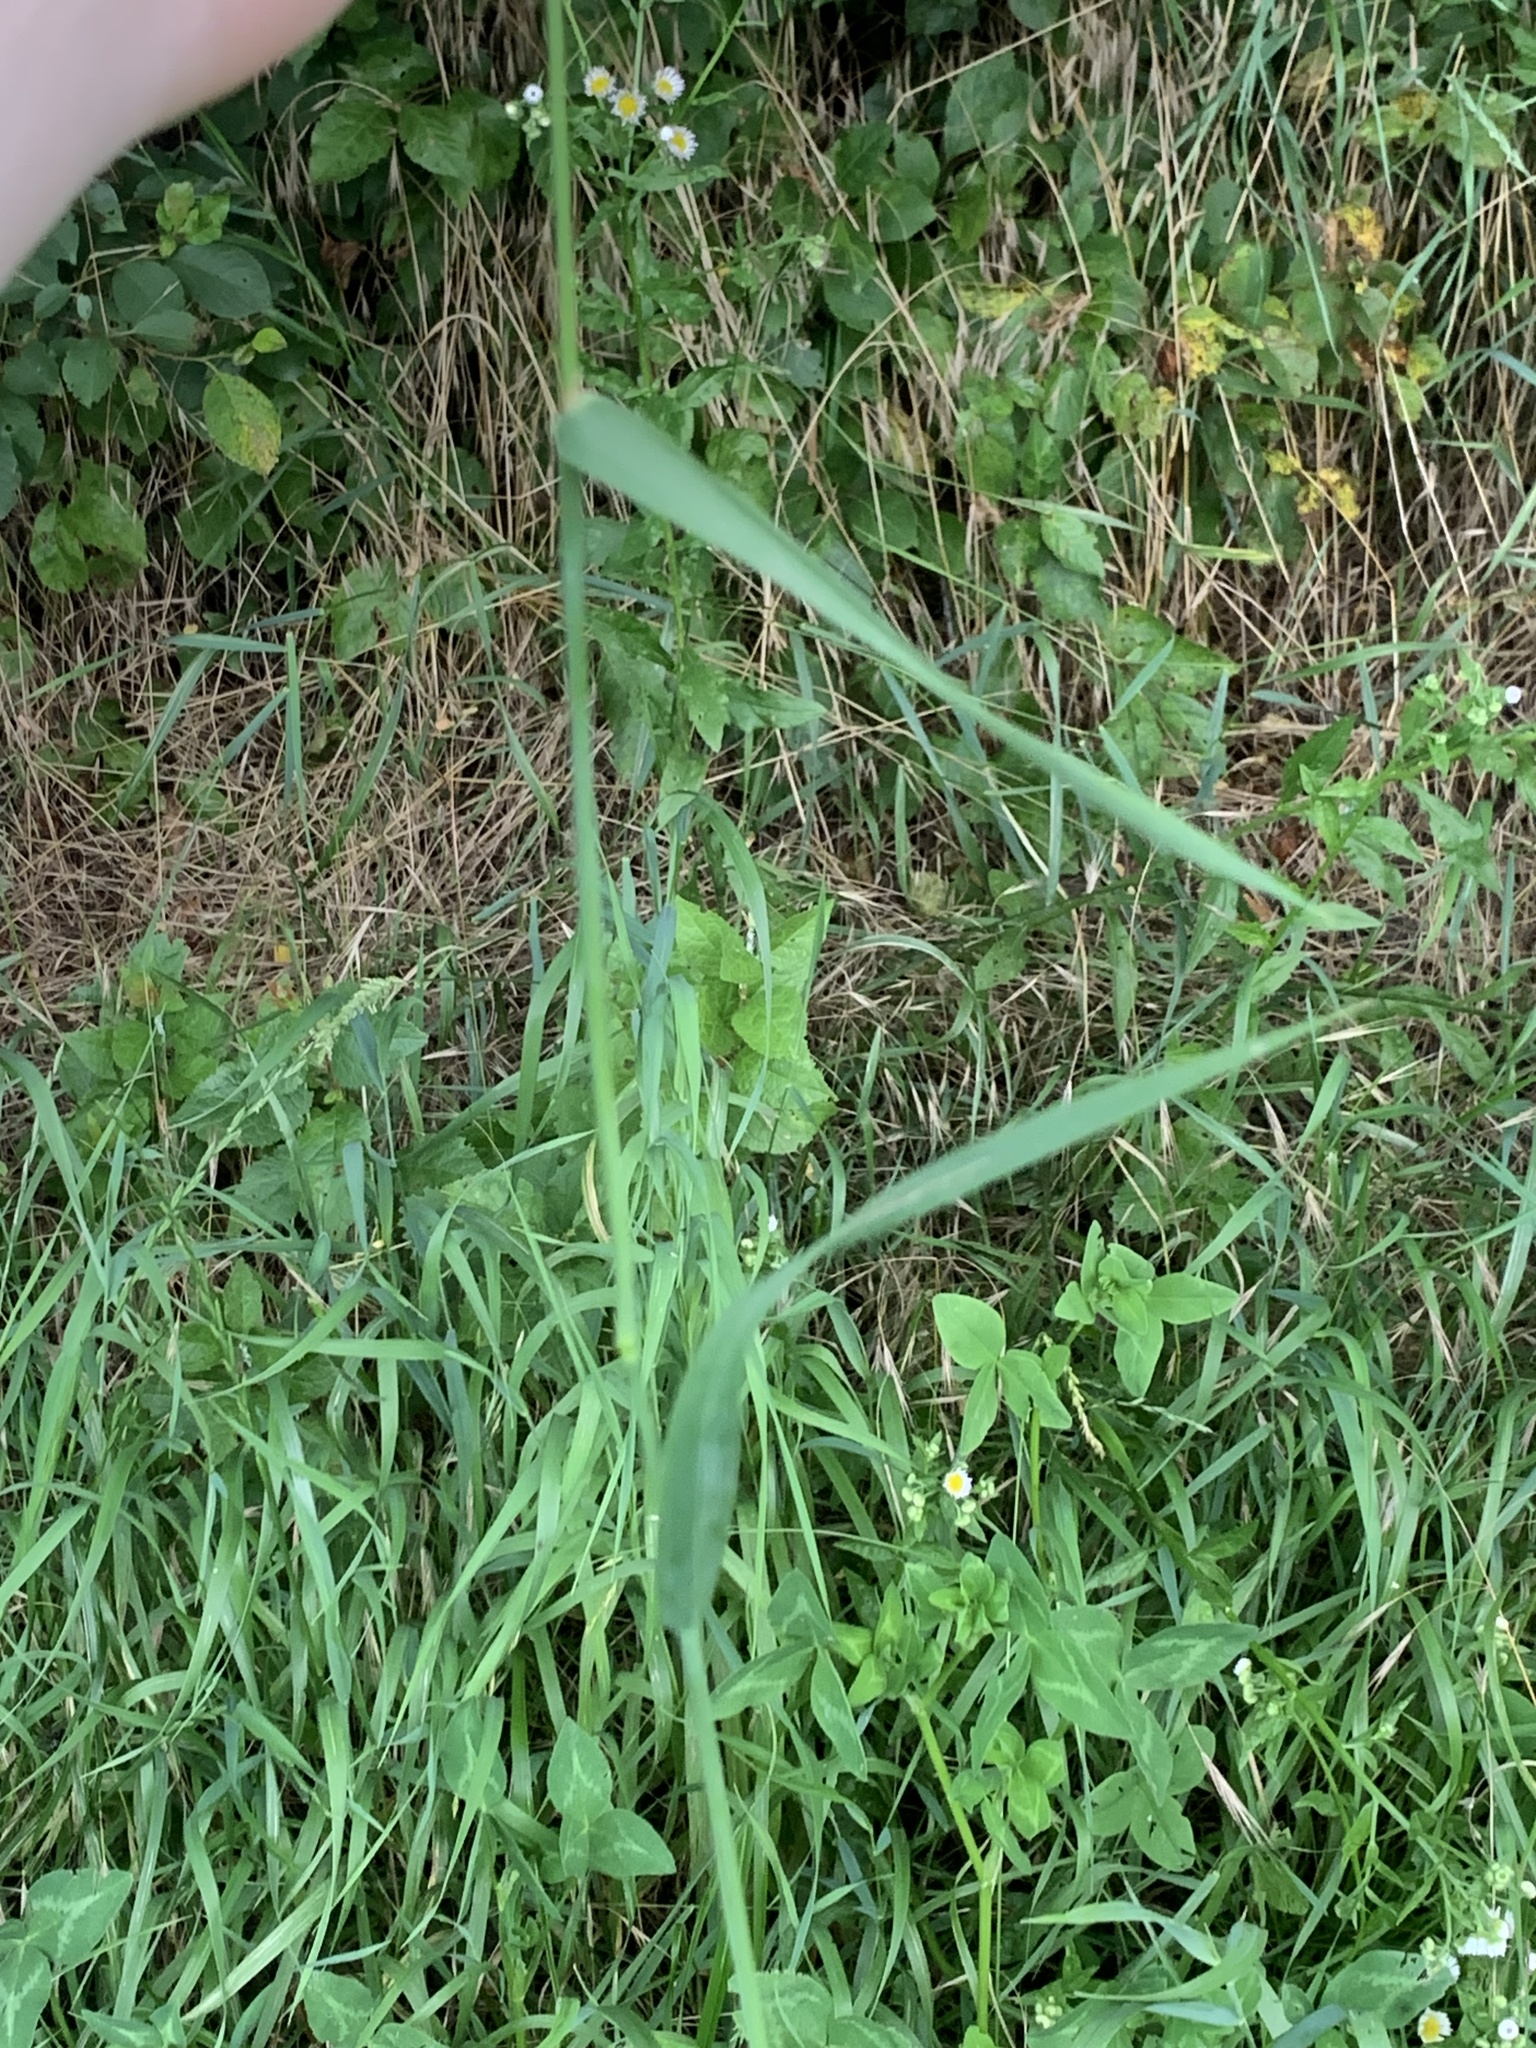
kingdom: Plantae
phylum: Tracheophyta
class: Liliopsida
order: Poales
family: Poaceae
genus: Phleum
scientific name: Phleum pratense
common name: Timothy grass
